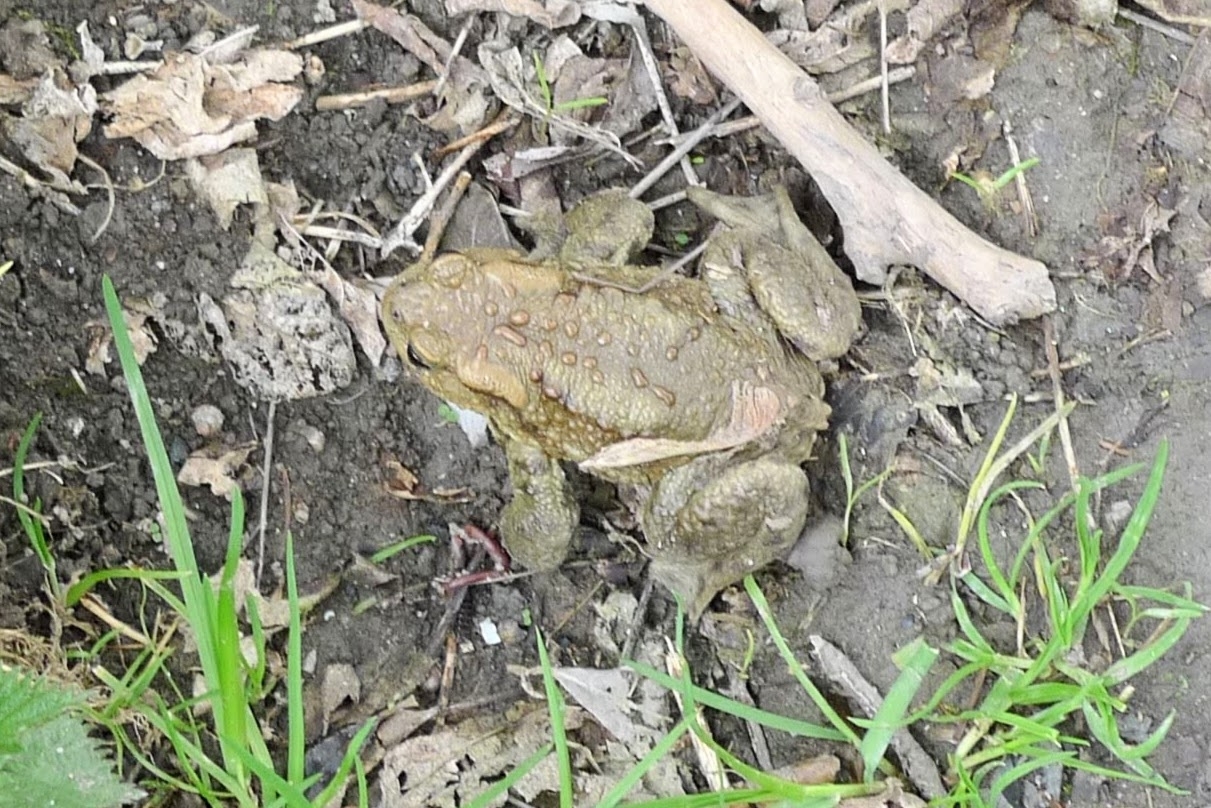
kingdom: Animalia
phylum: Chordata
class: Amphibia
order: Anura
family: Bufonidae
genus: Bufo
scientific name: Bufo bufo
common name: Common toad
